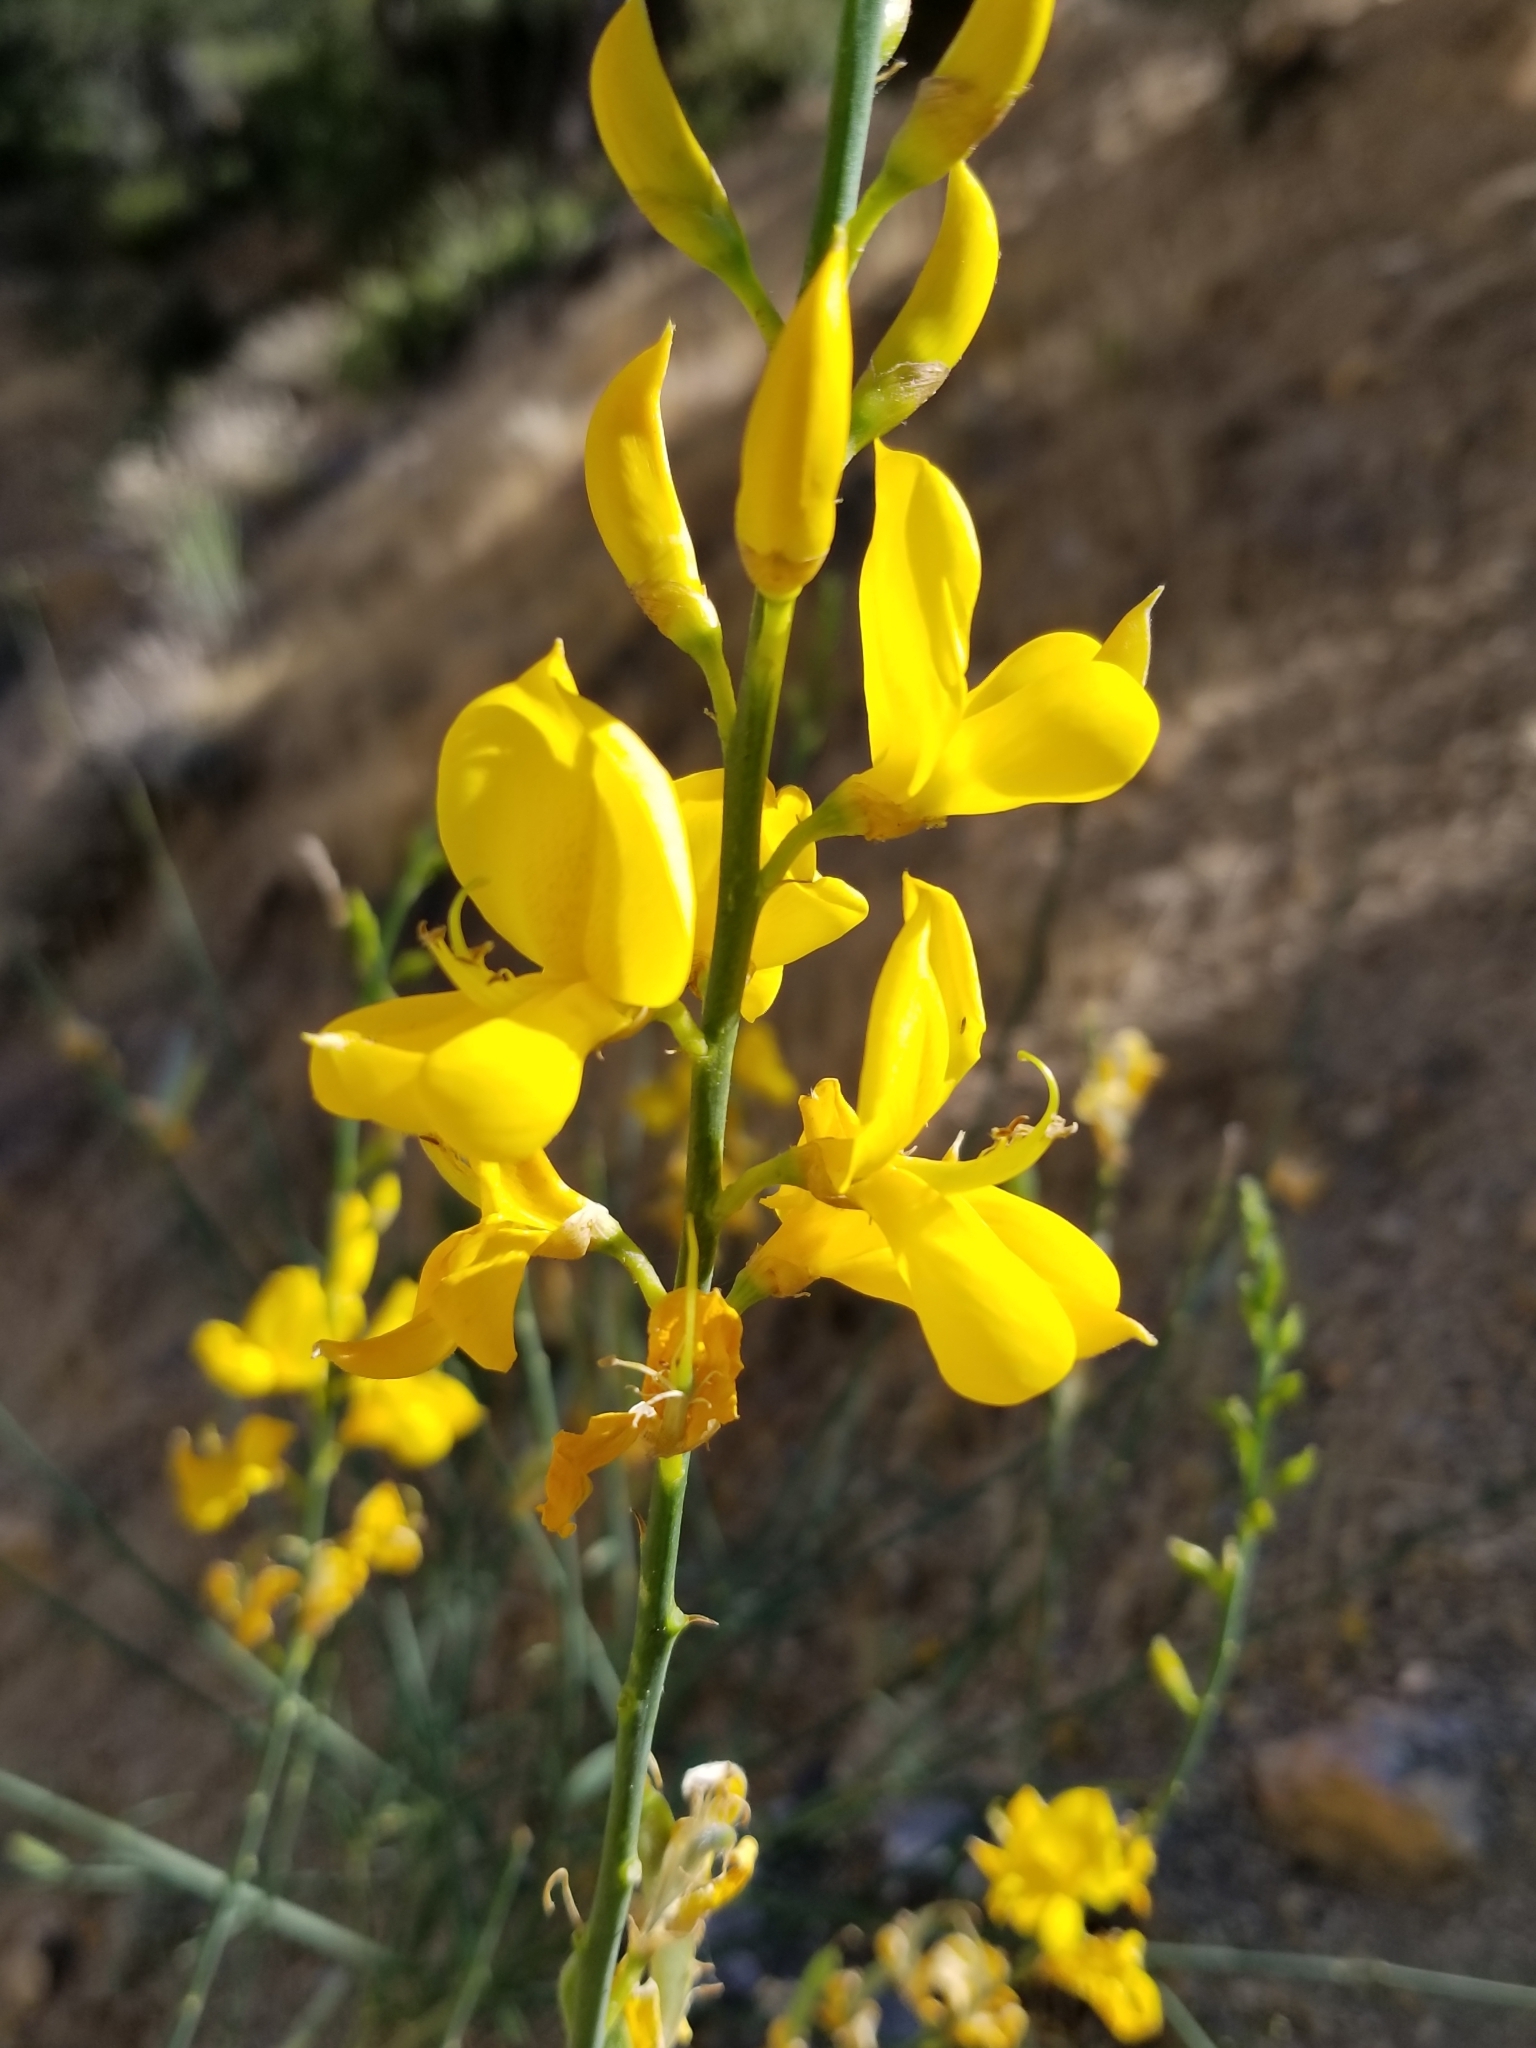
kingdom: Plantae
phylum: Tracheophyta
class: Magnoliopsida
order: Fabales
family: Fabaceae
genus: Spartium
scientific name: Spartium junceum
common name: Spanish broom
